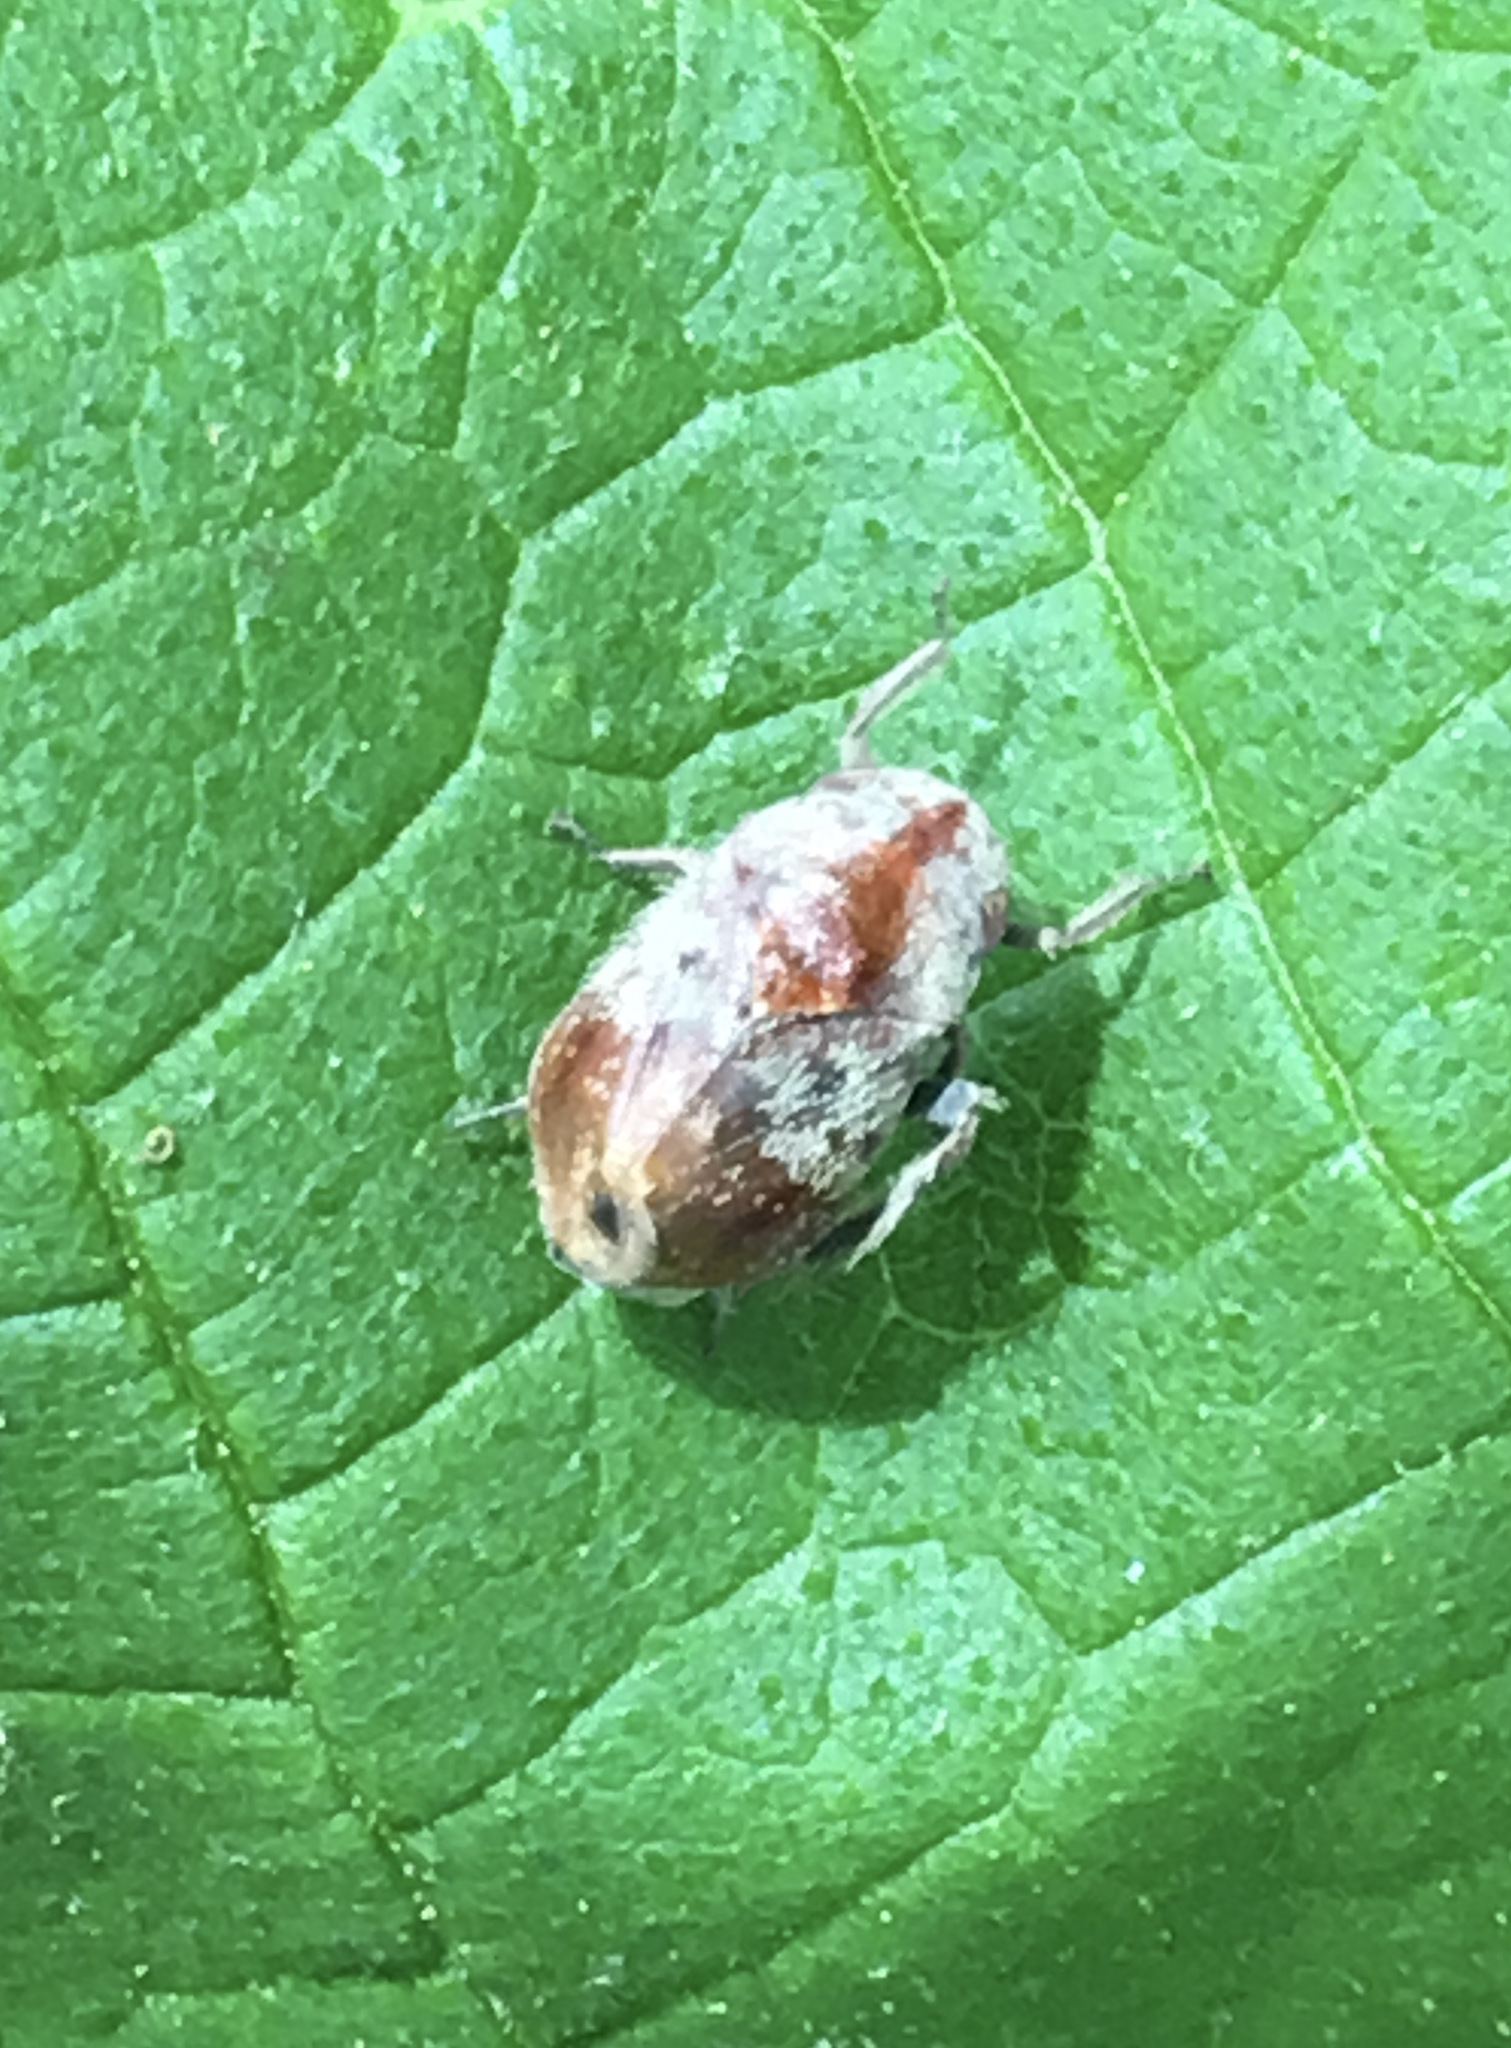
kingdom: Animalia
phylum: Arthropoda
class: Insecta
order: Hemiptera
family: Cicadellidae
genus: Penthimia
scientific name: Penthimia americana
